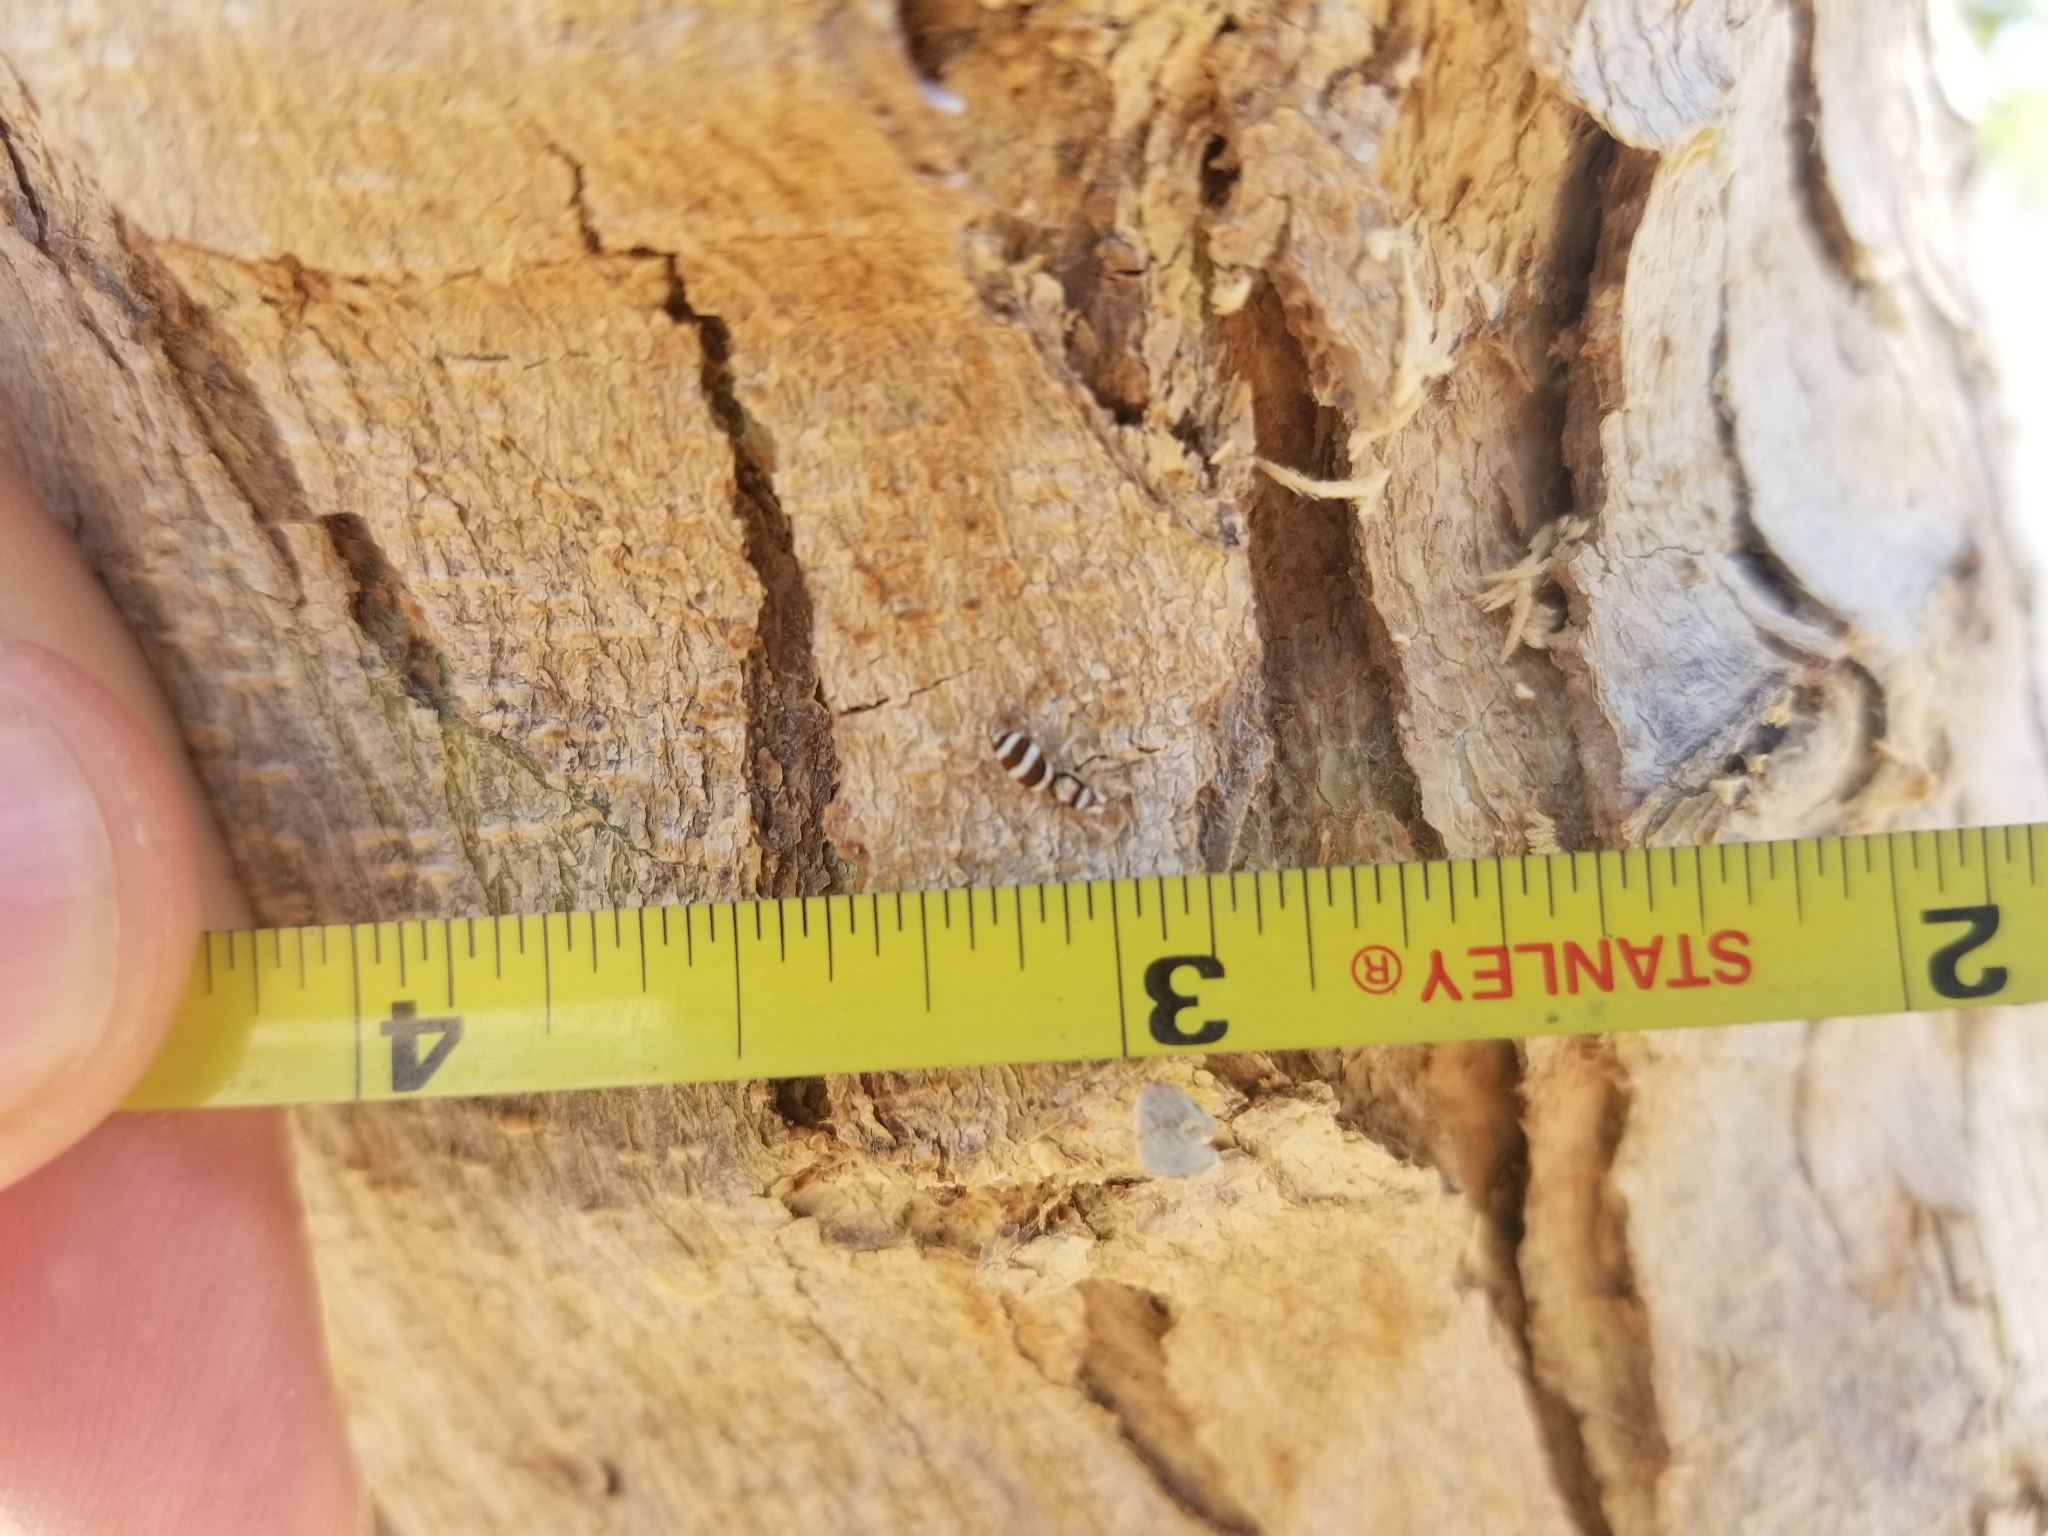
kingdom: Animalia
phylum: Arthropoda
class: Arachnida
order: Araneae
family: Salticidae
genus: Salticus
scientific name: Salticus palpalis
